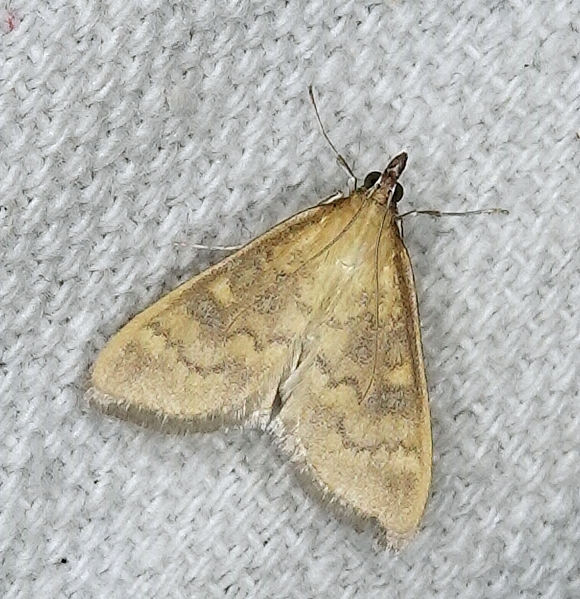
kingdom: Animalia
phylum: Arthropoda
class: Insecta
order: Lepidoptera
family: Crambidae
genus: Ostrinia
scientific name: Ostrinia nubilalis
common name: European corn borer
